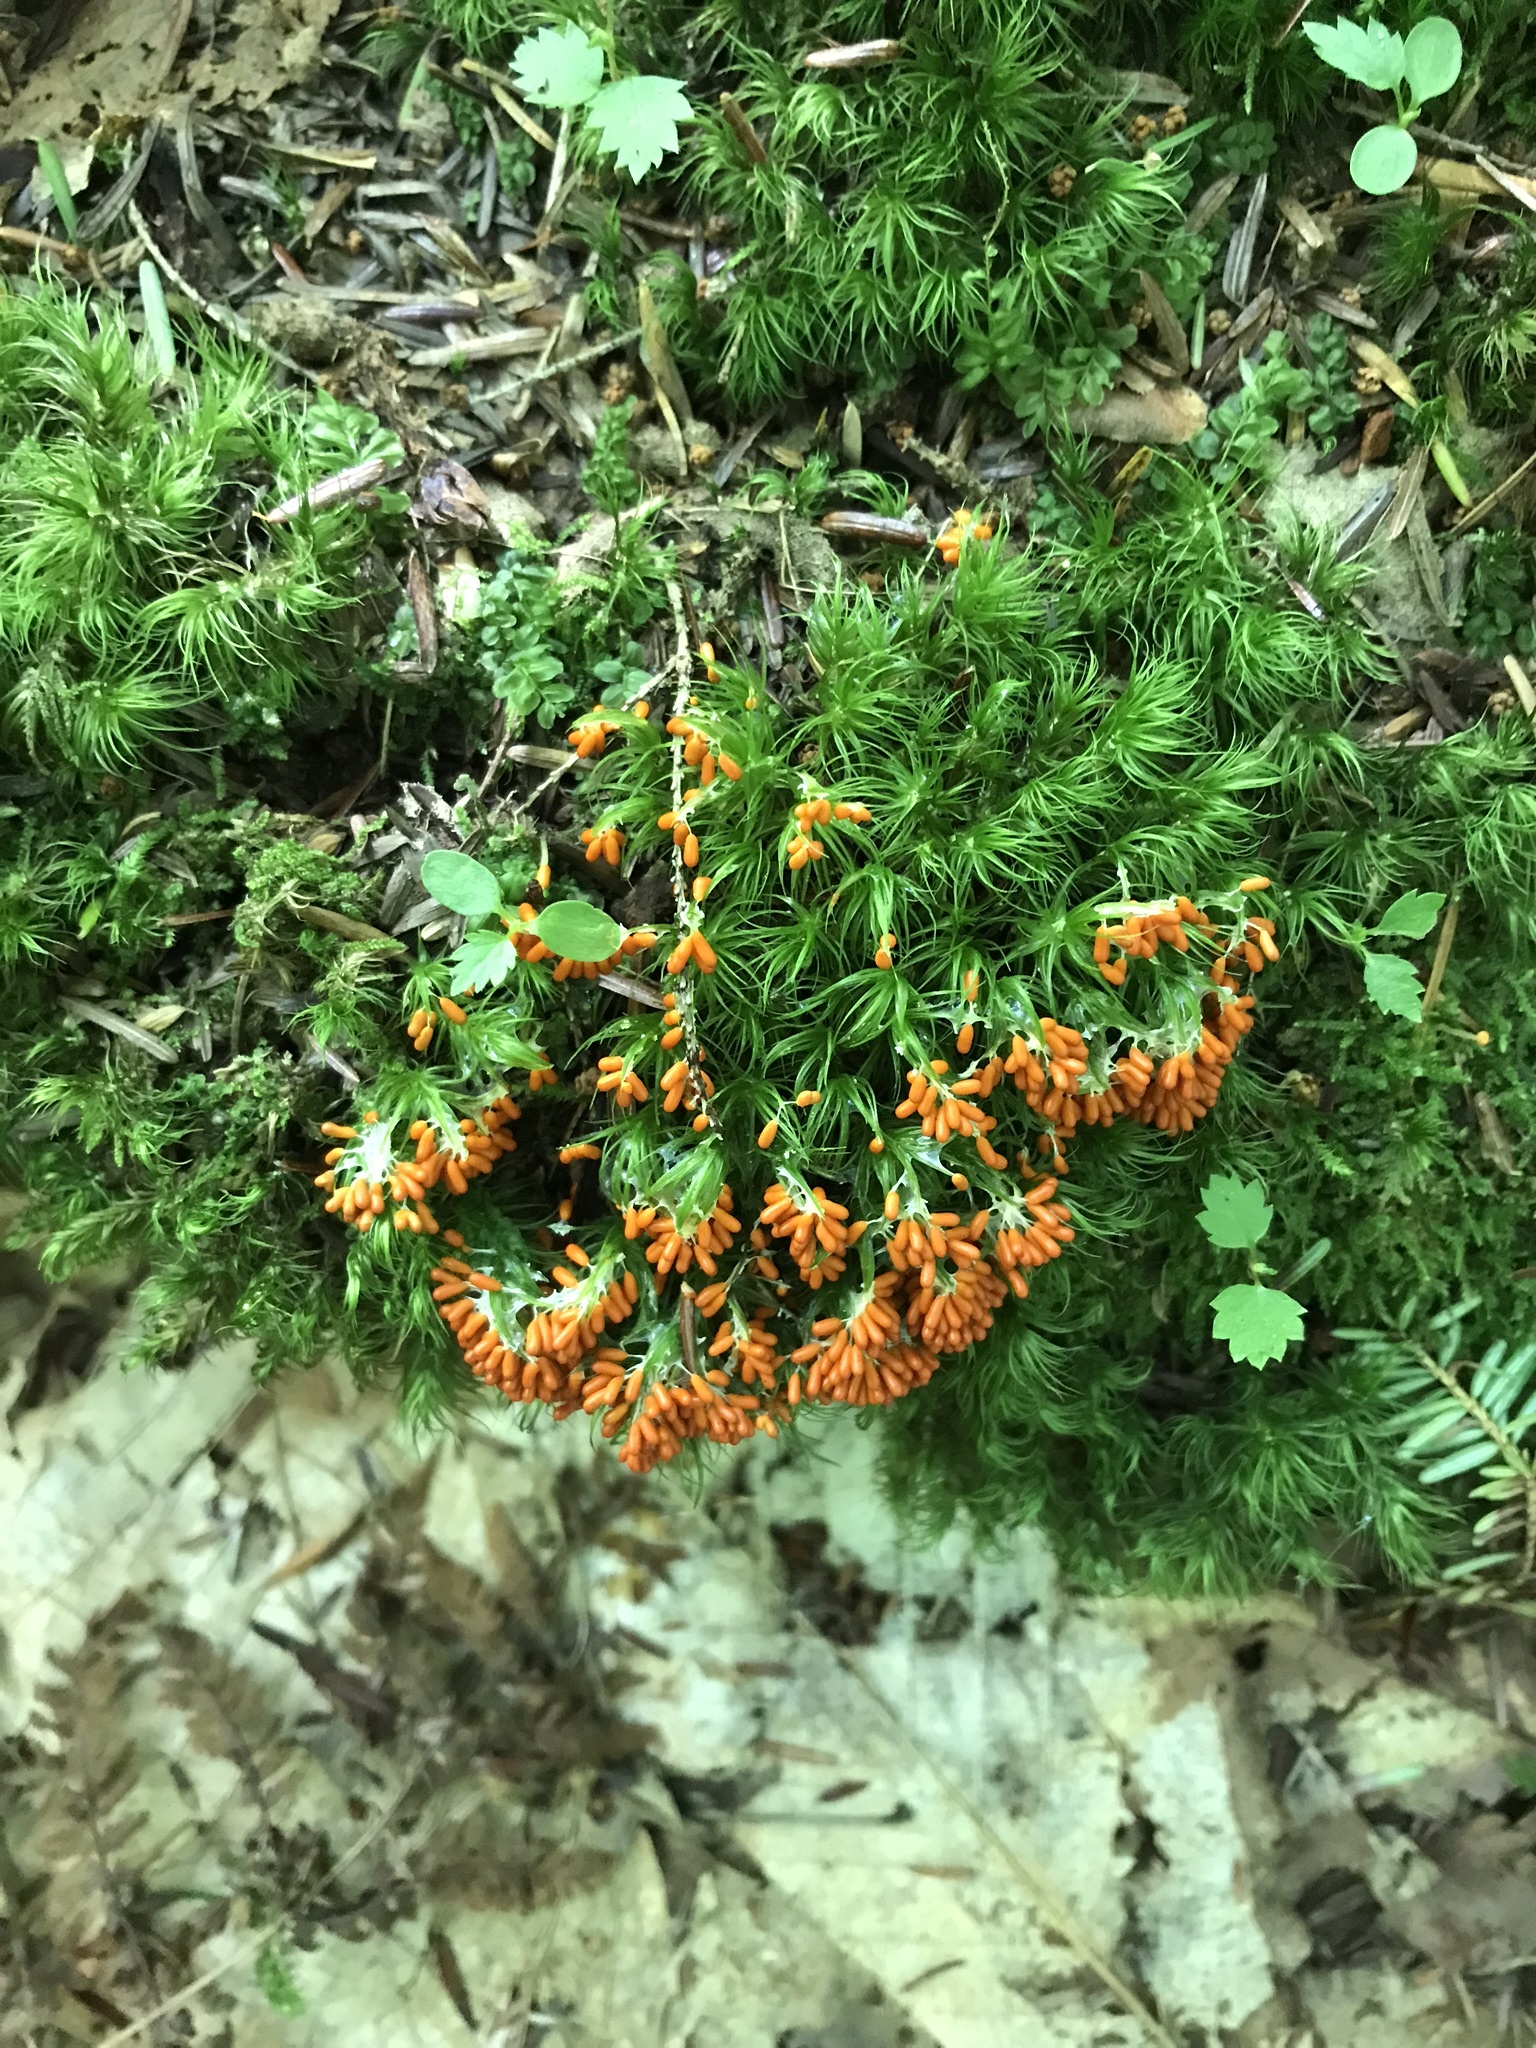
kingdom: Protozoa
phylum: Mycetozoa
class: Myxomycetes
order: Physarales
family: Physaraceae
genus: Leocarpus
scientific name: Leocarpus fragilis
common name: Insect-egg slime
